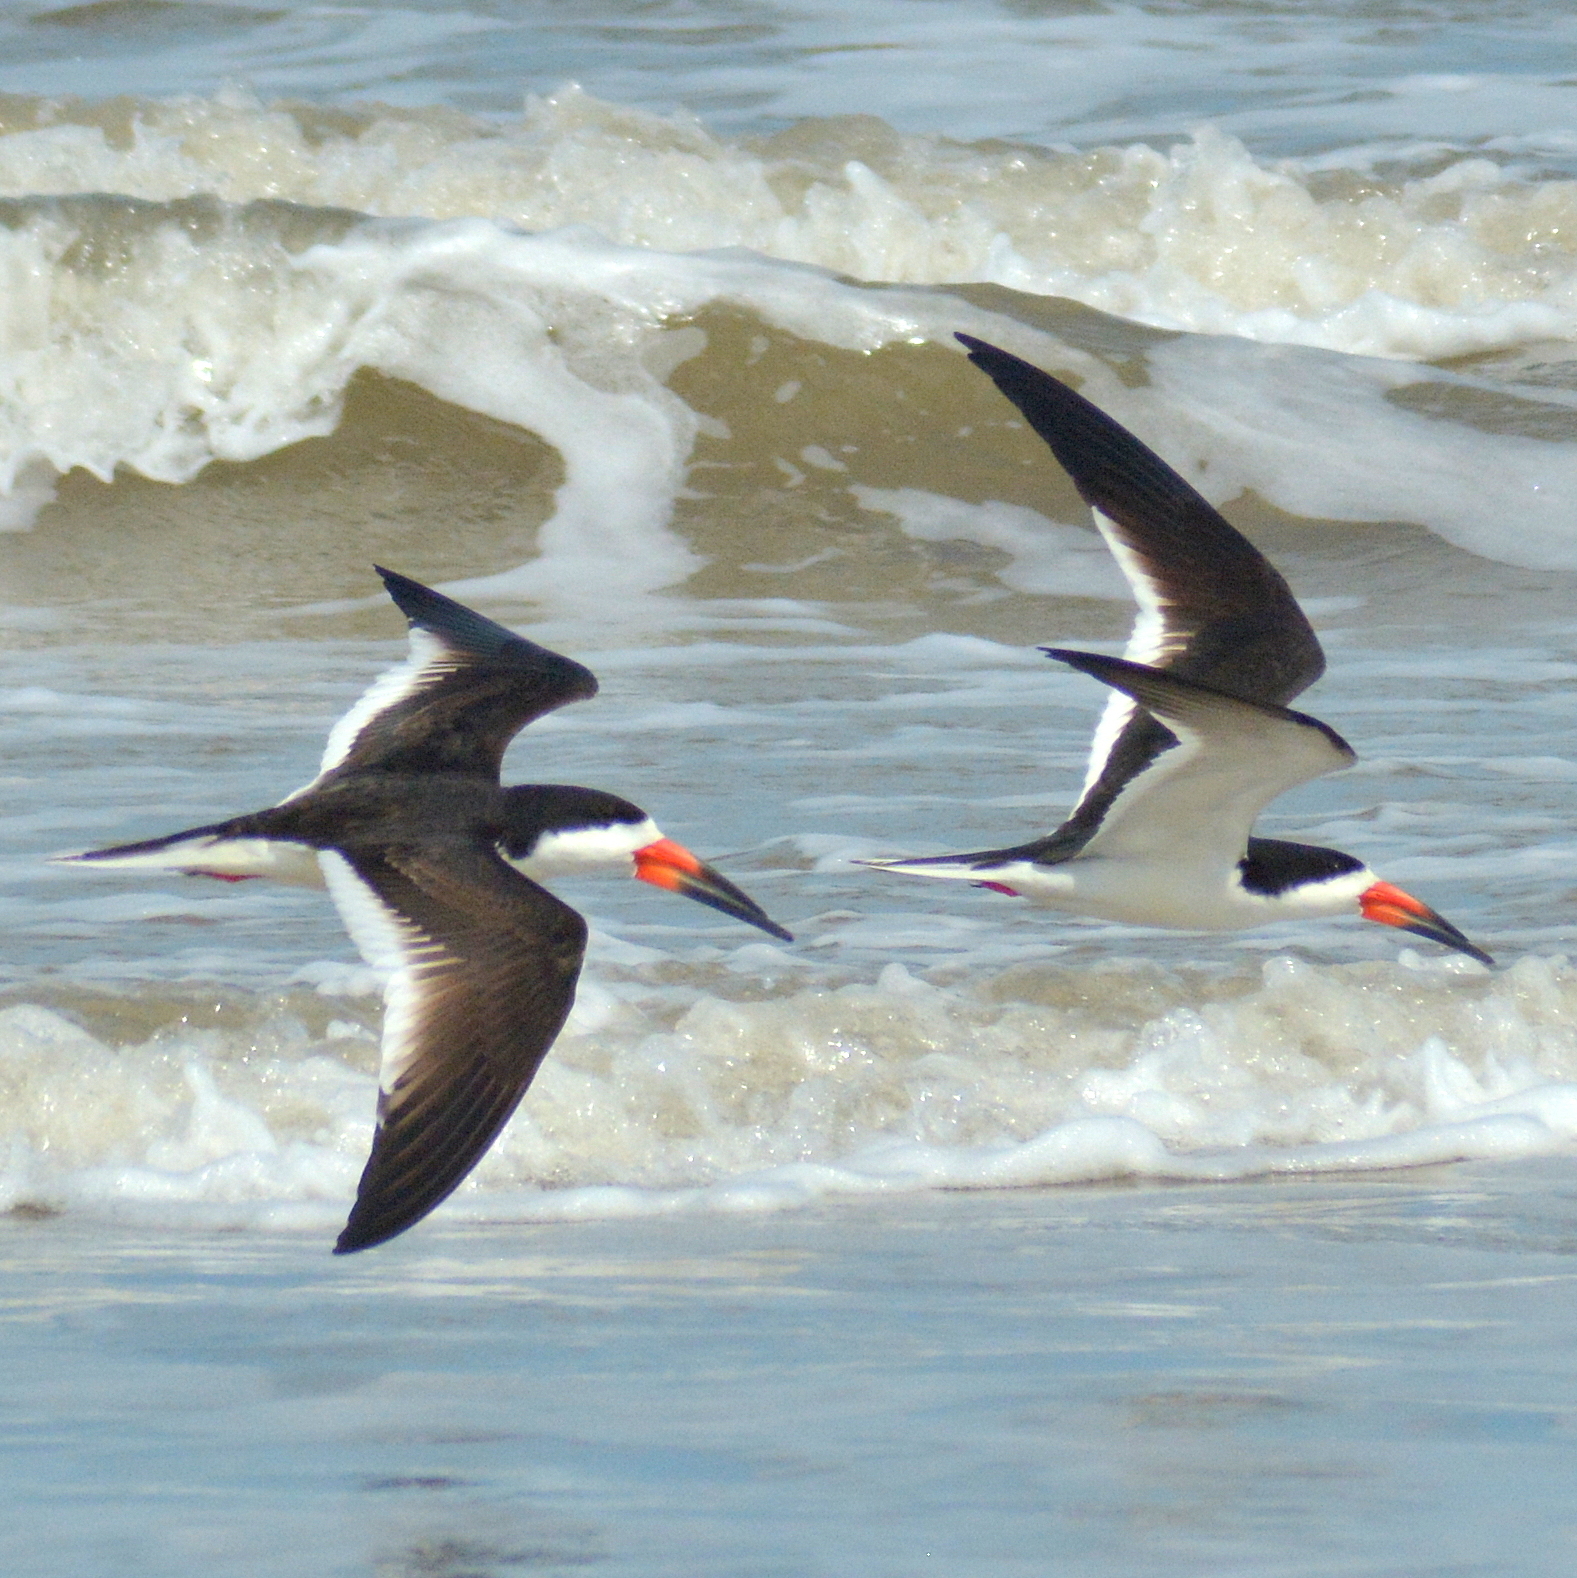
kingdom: Animalia
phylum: Chordata
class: Aves
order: Charadriiformes
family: Laridae
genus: Rynchops
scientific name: Rynchops niger
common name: Black skimmer
